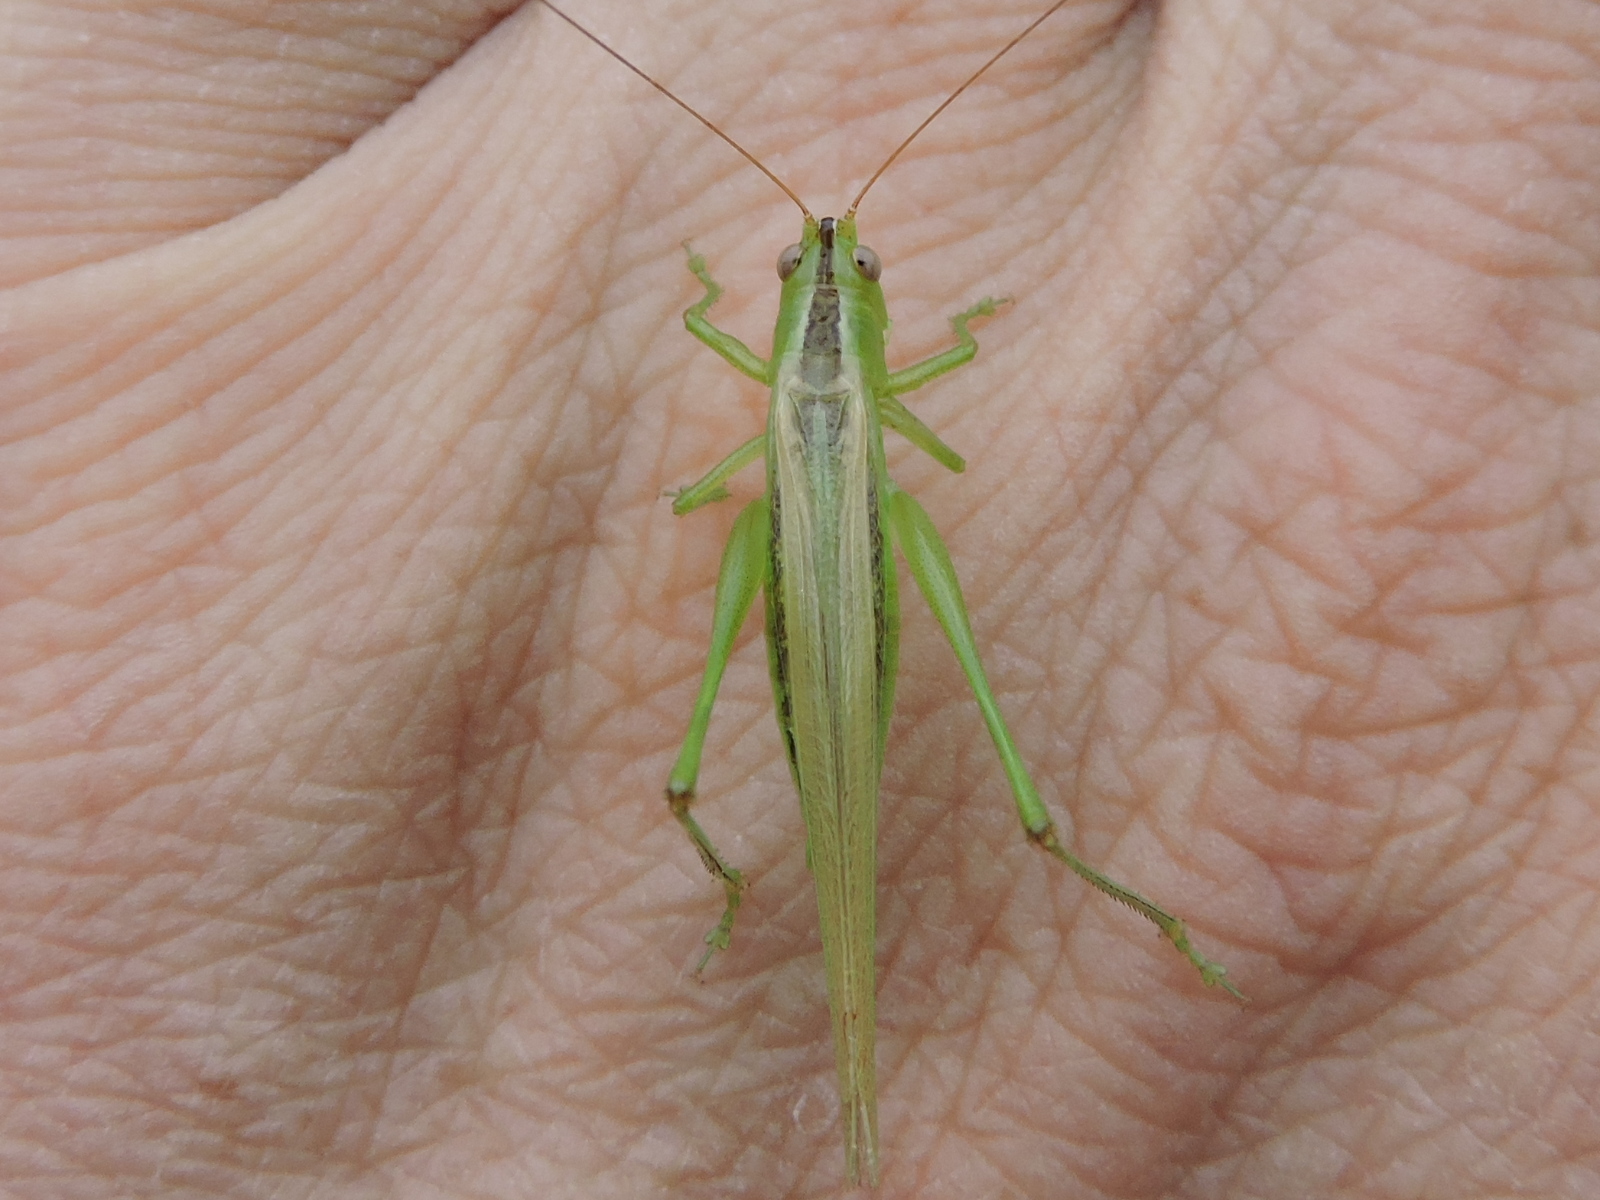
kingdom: Animalia
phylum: Arthropoda
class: Insecta
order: Orthoptera
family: Tettigoniidae
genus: Conocephalus
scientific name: Conocephalus fasciatus
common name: Slender meadow katydid
